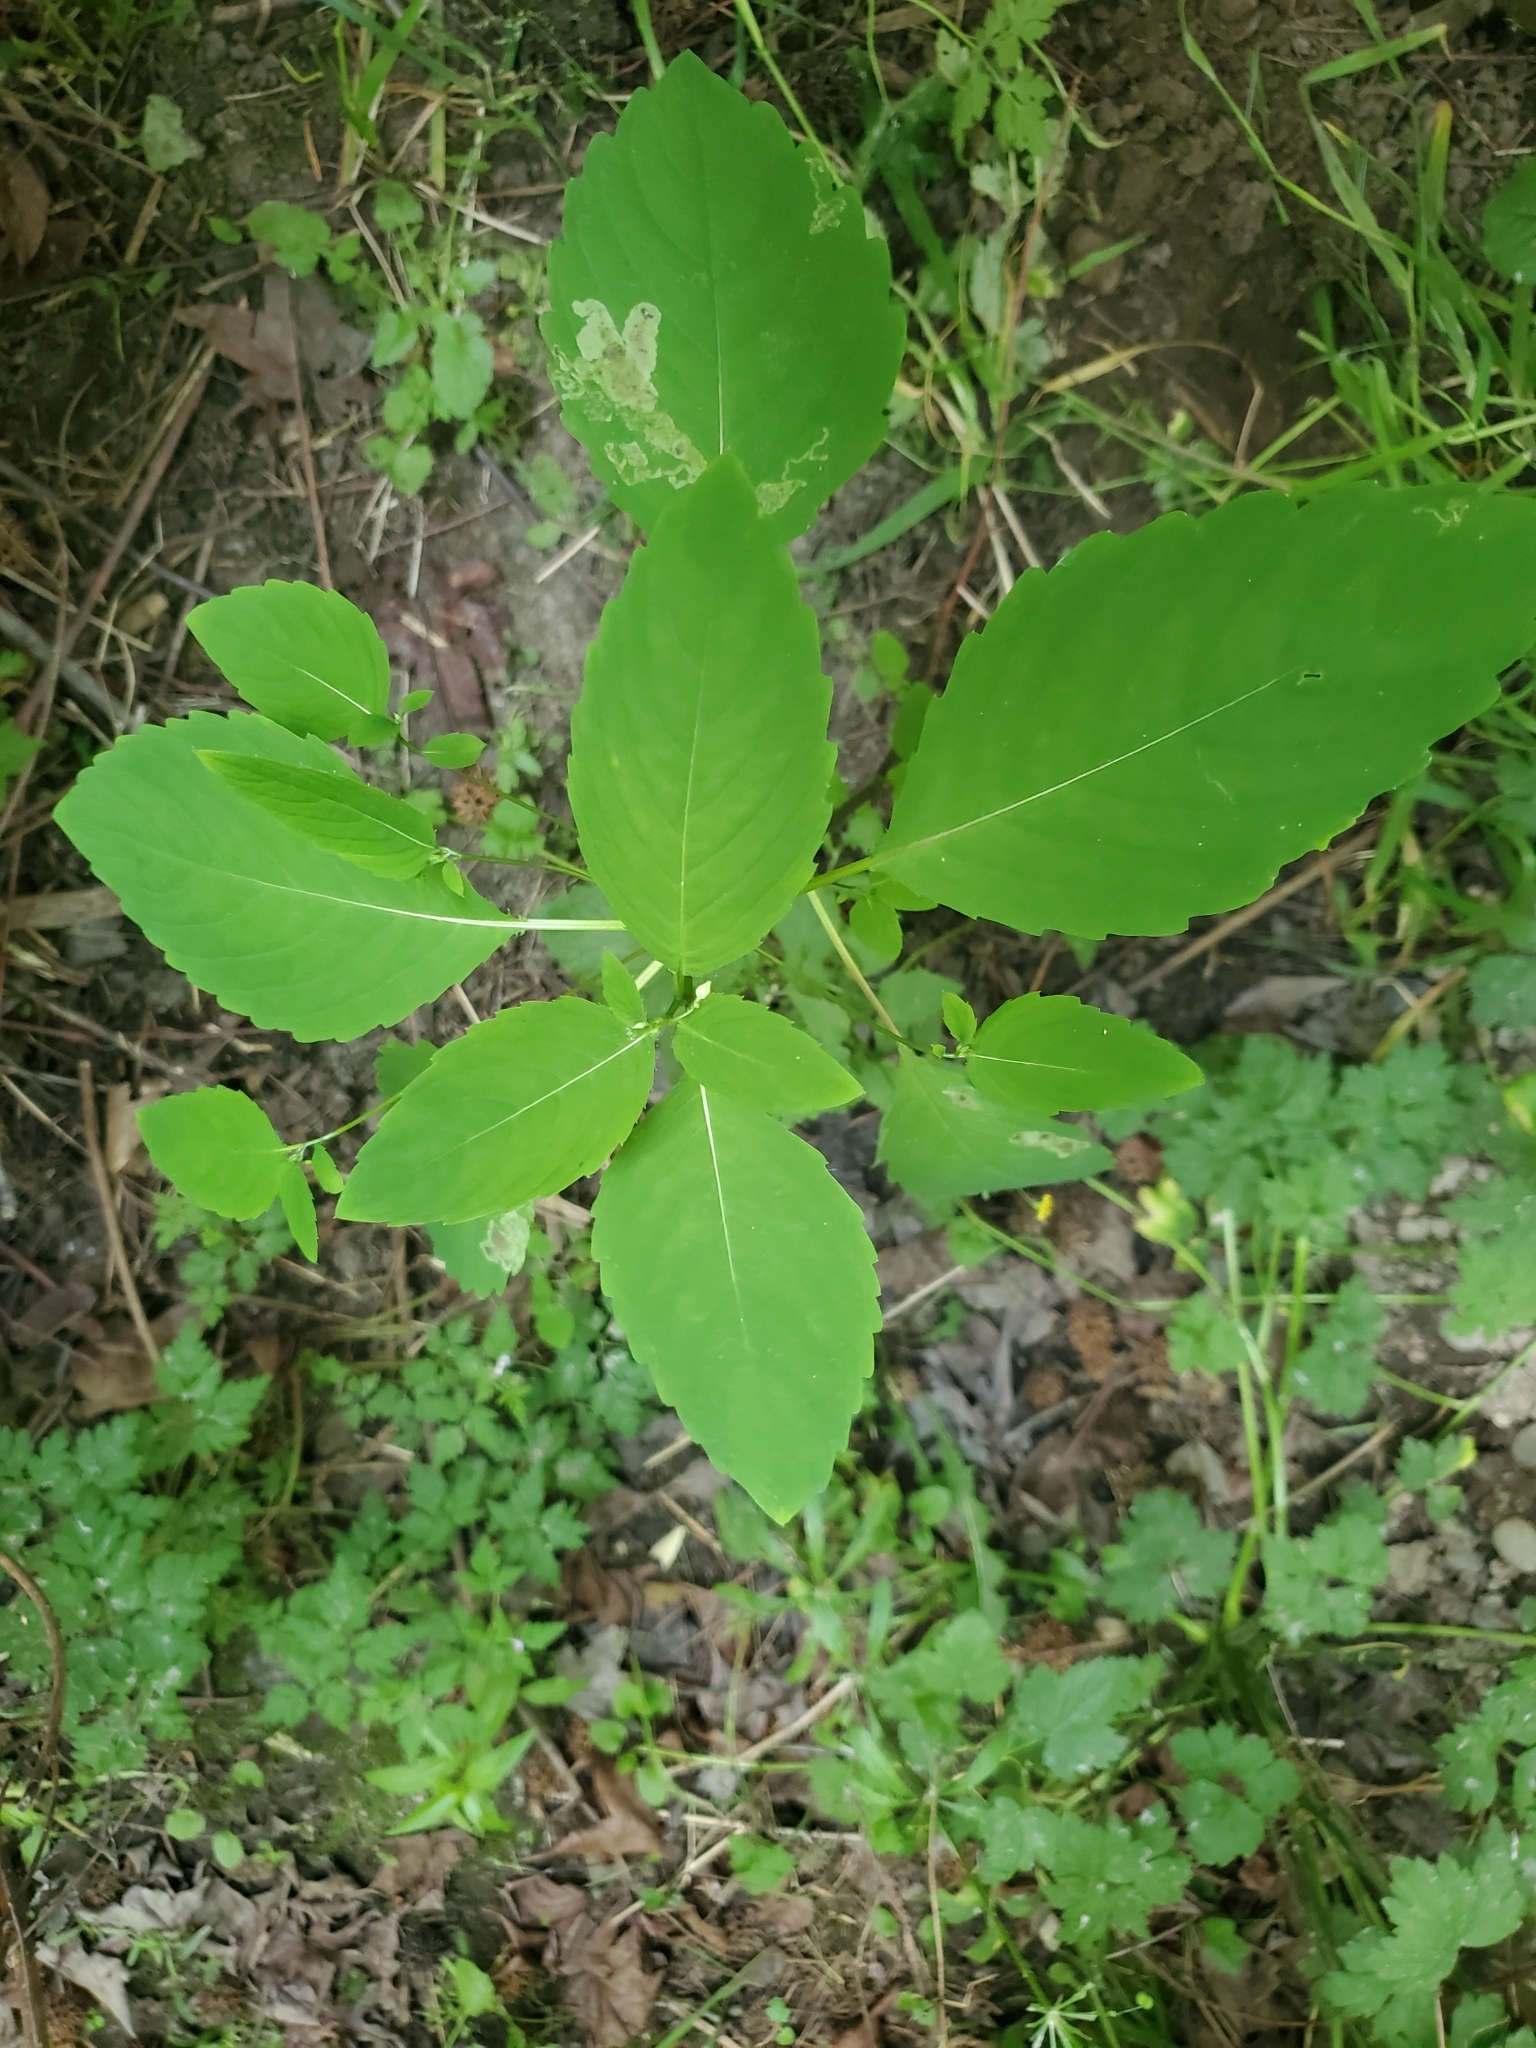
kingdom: Plantae
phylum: Tracheophyta
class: Magnoliopsida
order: Ericales
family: Balsaminaceae
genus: Impatiens
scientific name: Impatiens capensis
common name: Orange balsam
